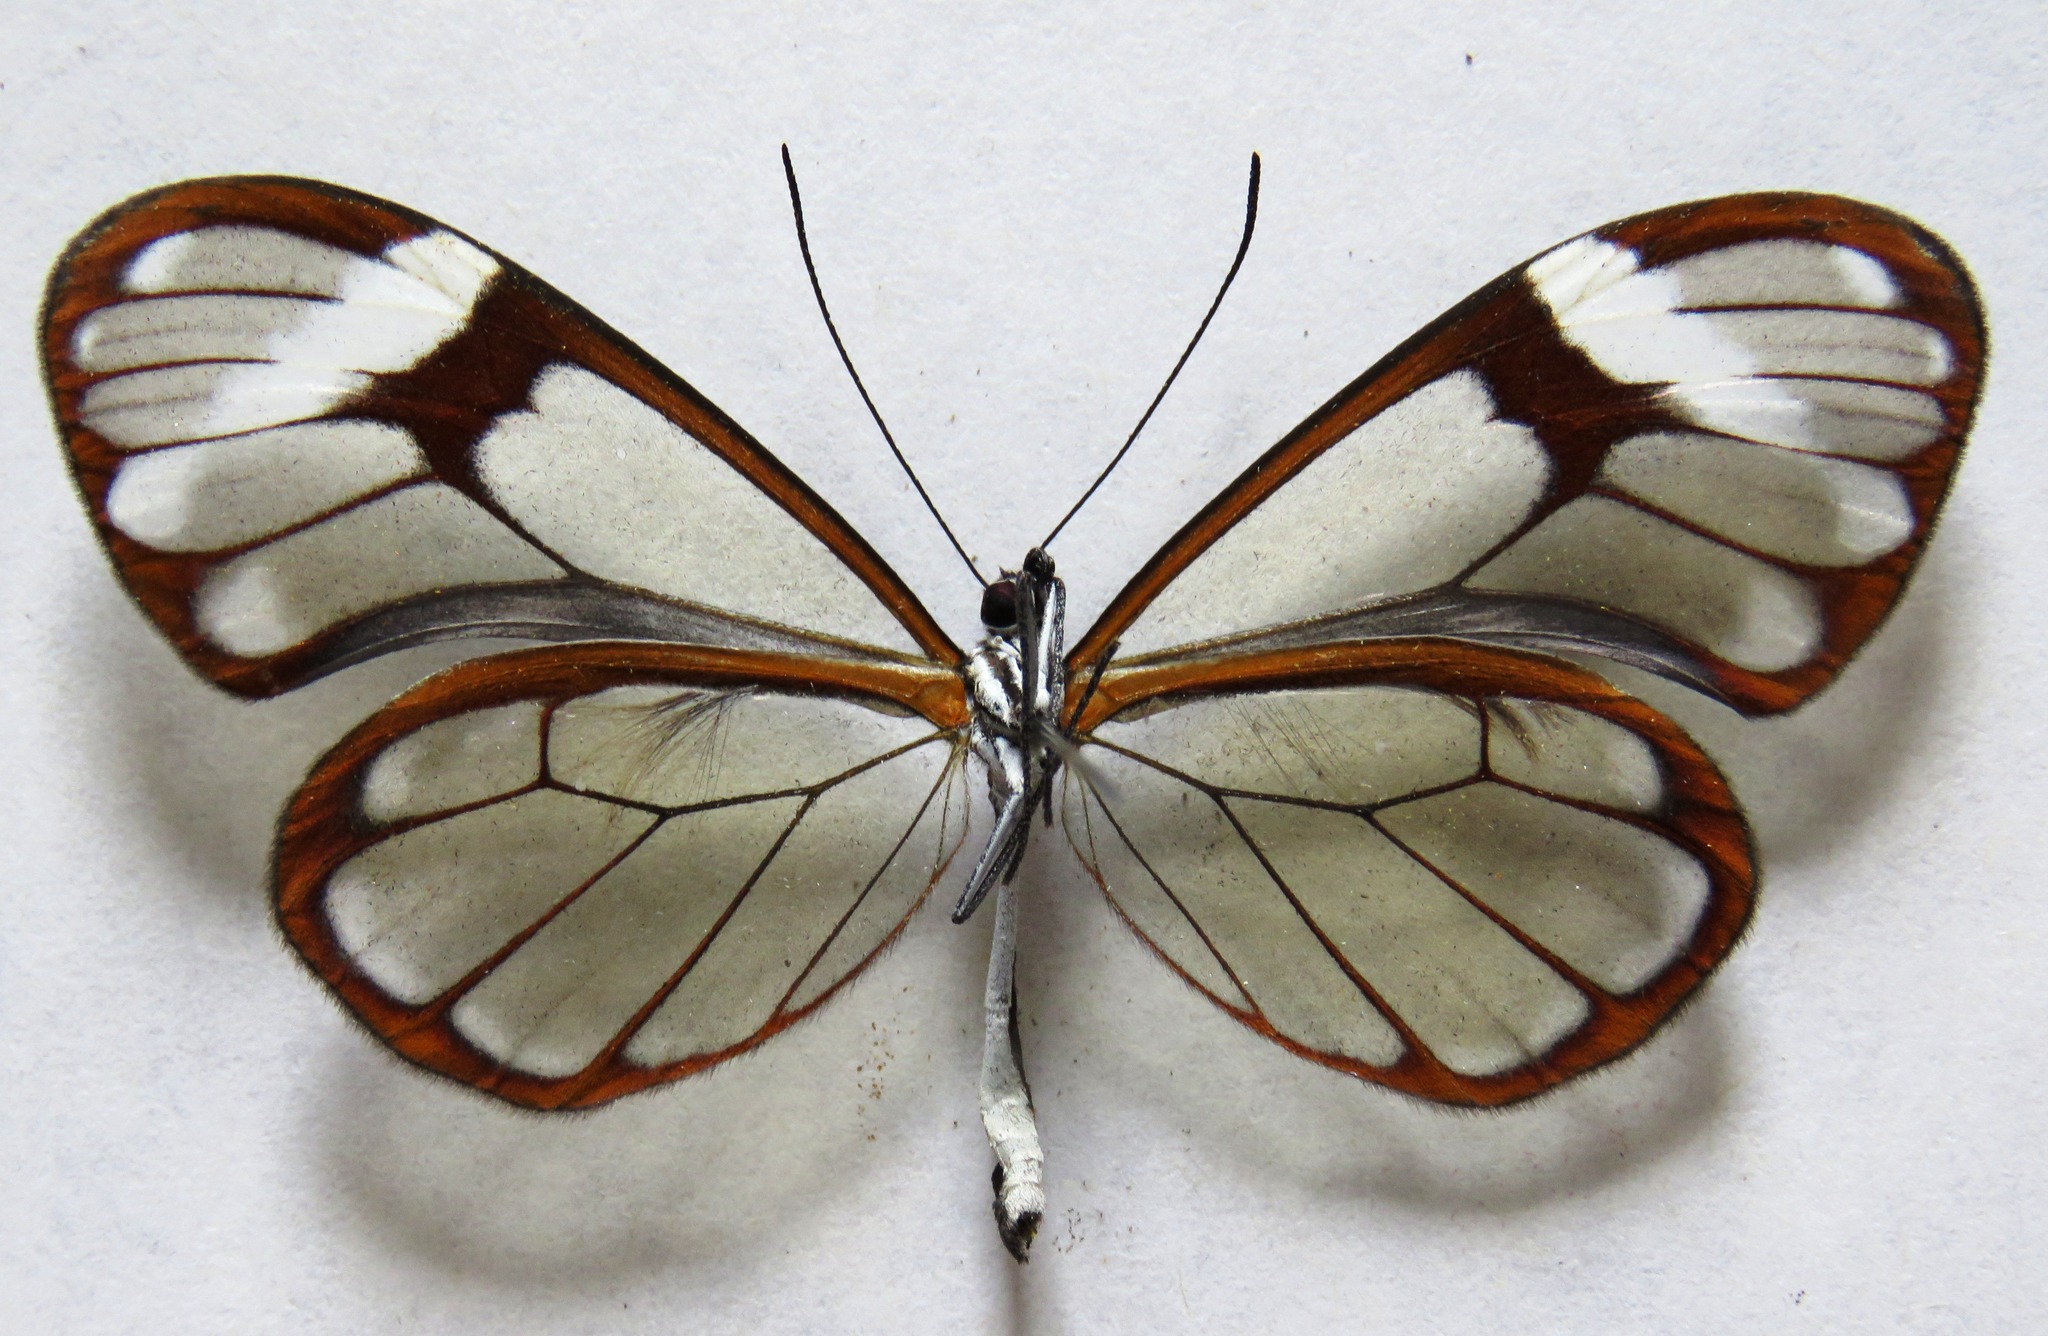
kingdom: Animalia
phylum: Arthropoda
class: Insecta
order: Lepidoptera
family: Nymphalidae
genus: Godyris
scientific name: Godyris nero
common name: Nero clearwing
